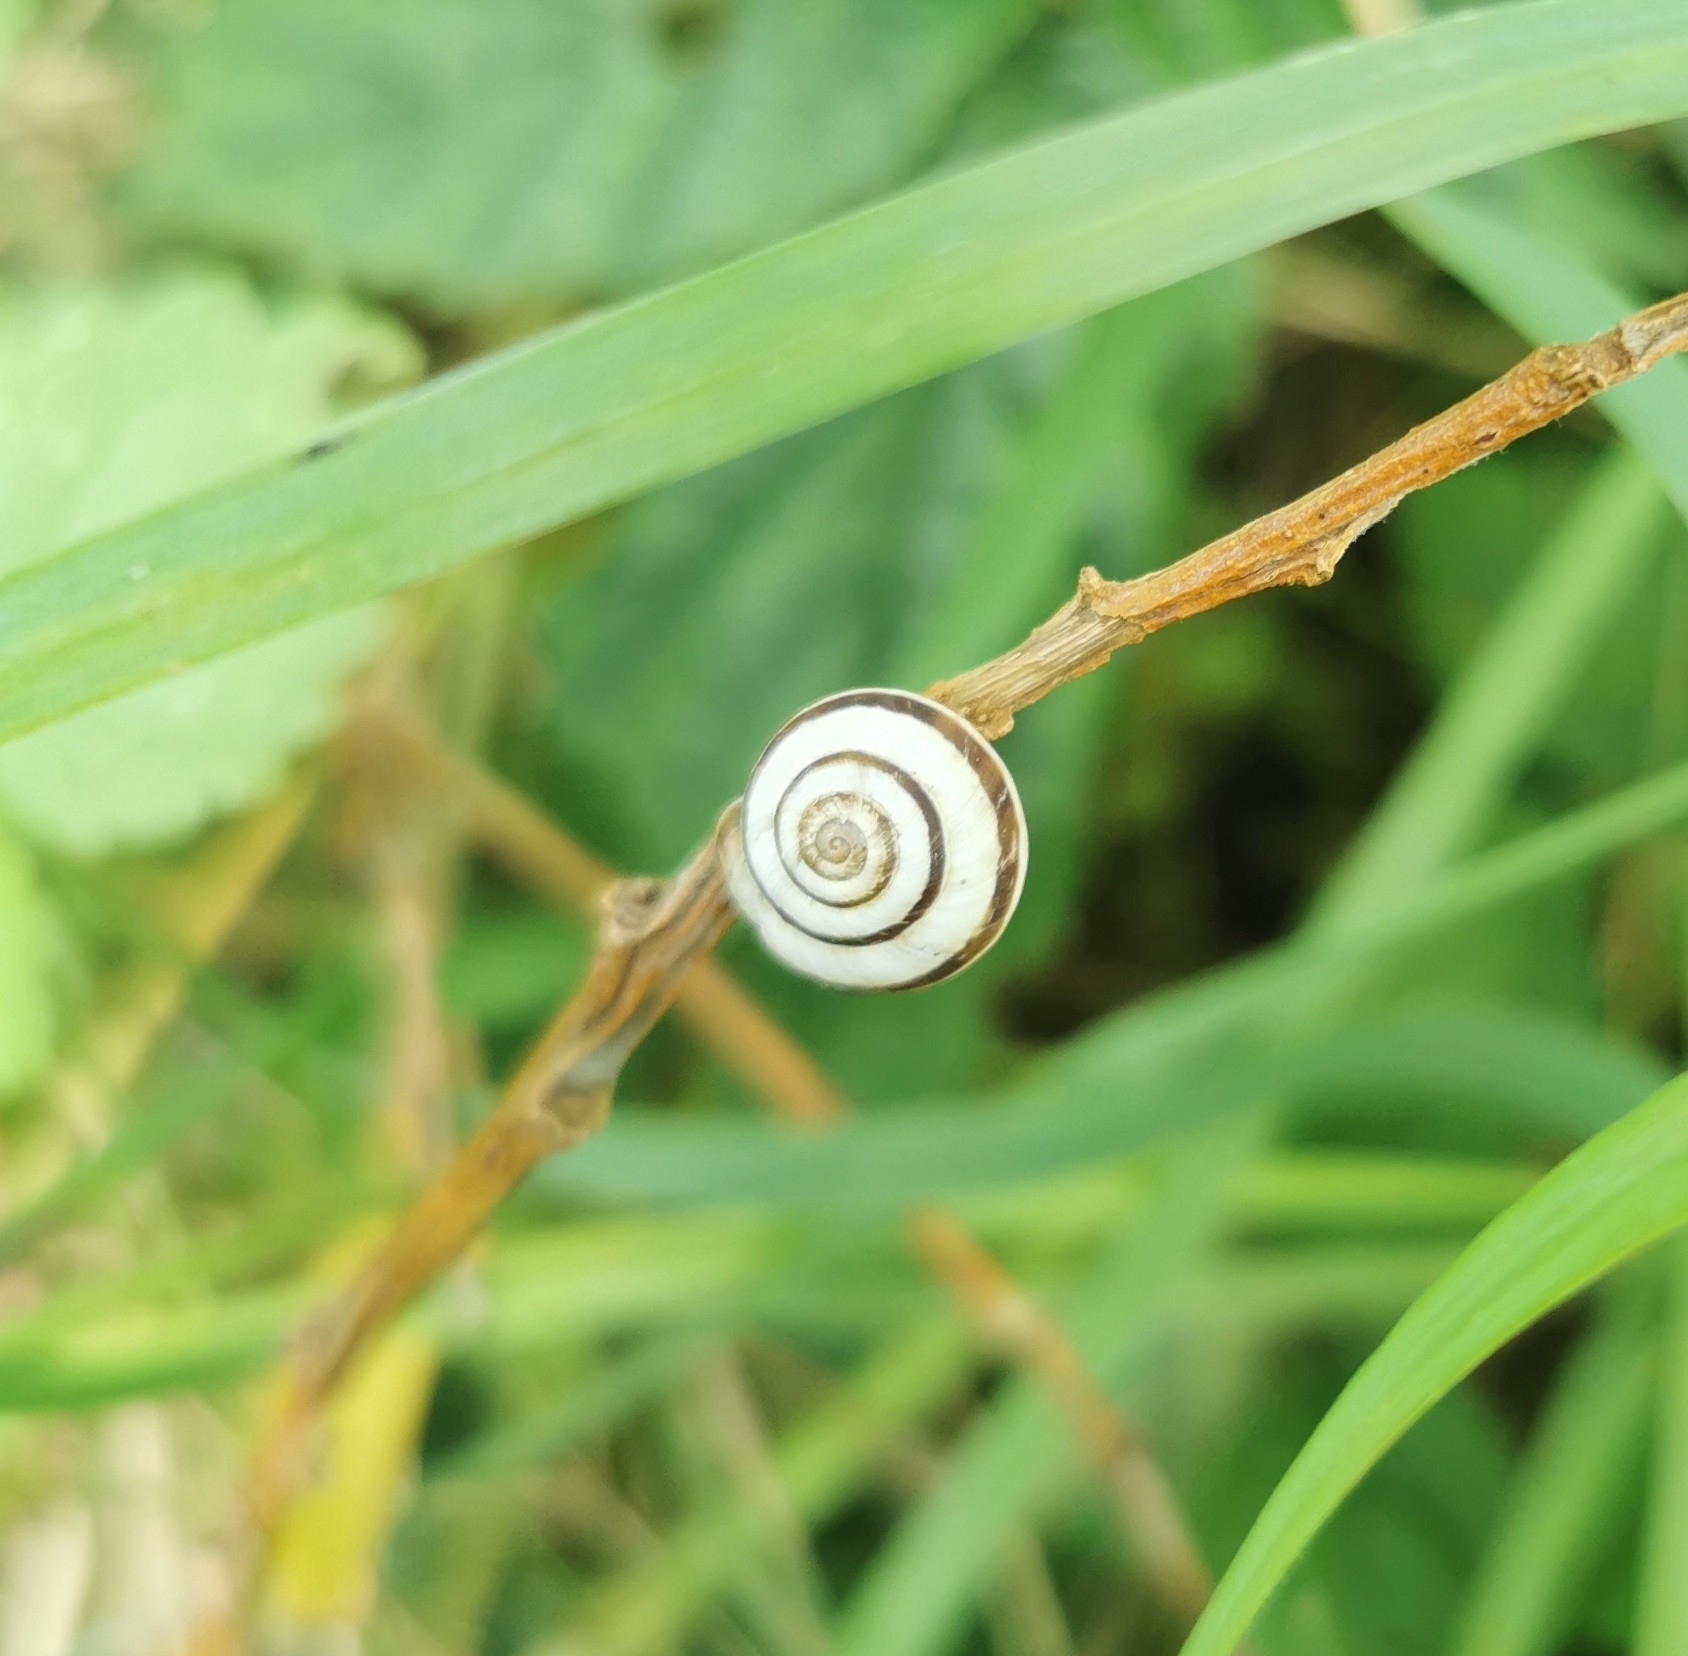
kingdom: Animalia
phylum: Mollusca
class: Gastropoda
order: Stylommatophora
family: Geomitridae
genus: Cernuella
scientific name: Cernuella virgata
